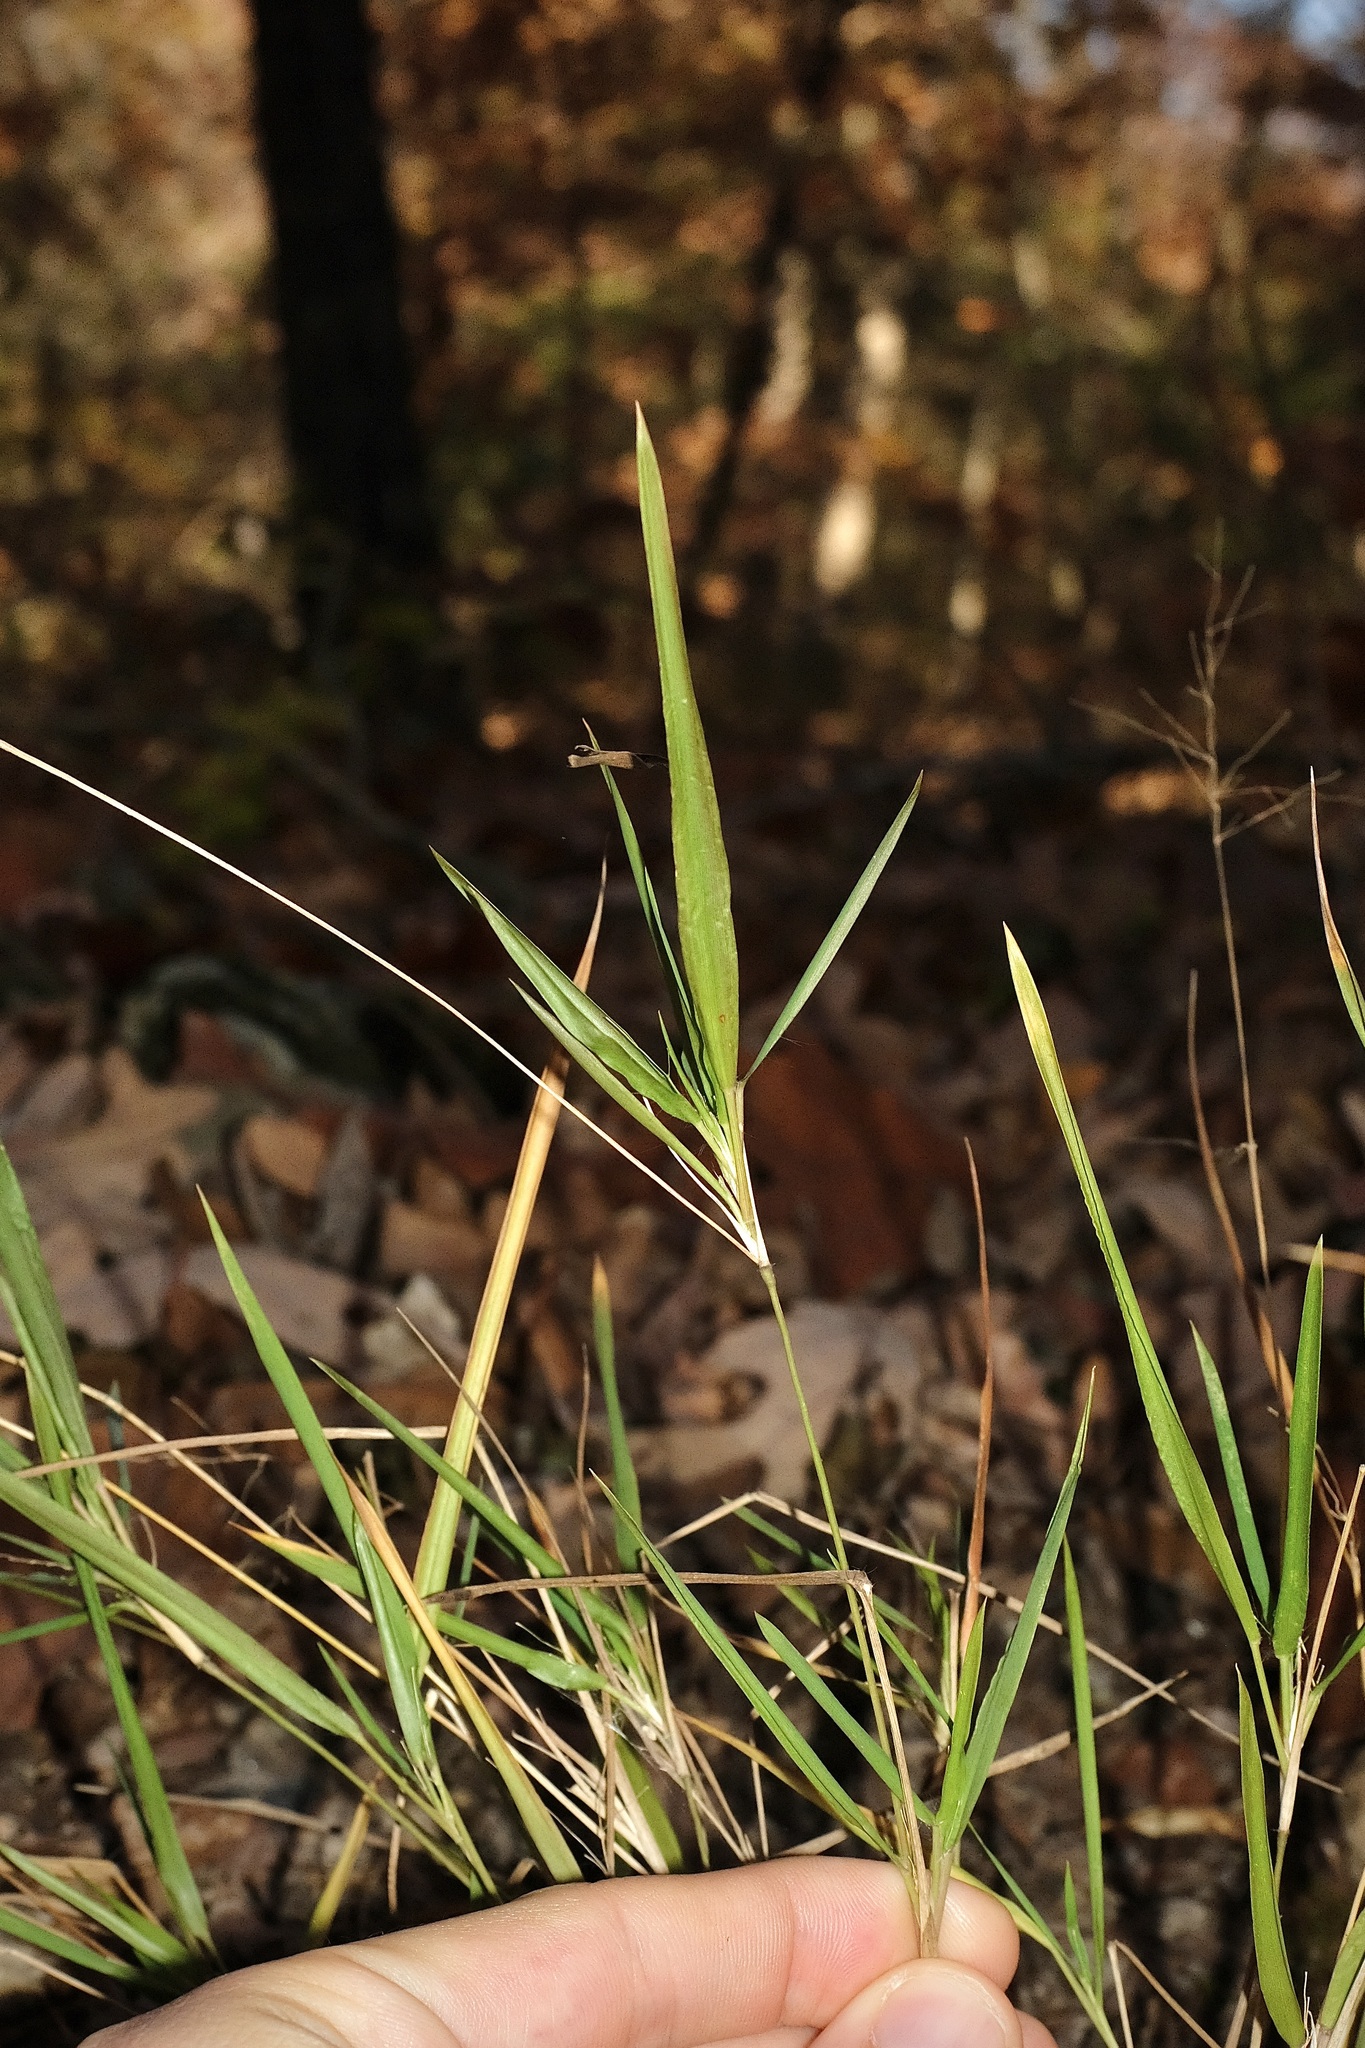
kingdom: Plantae
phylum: Tracheophyta
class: Liliopsida
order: Poales
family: Poaceae
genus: Dichanthelium
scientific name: Dichanthelium bicknellii
